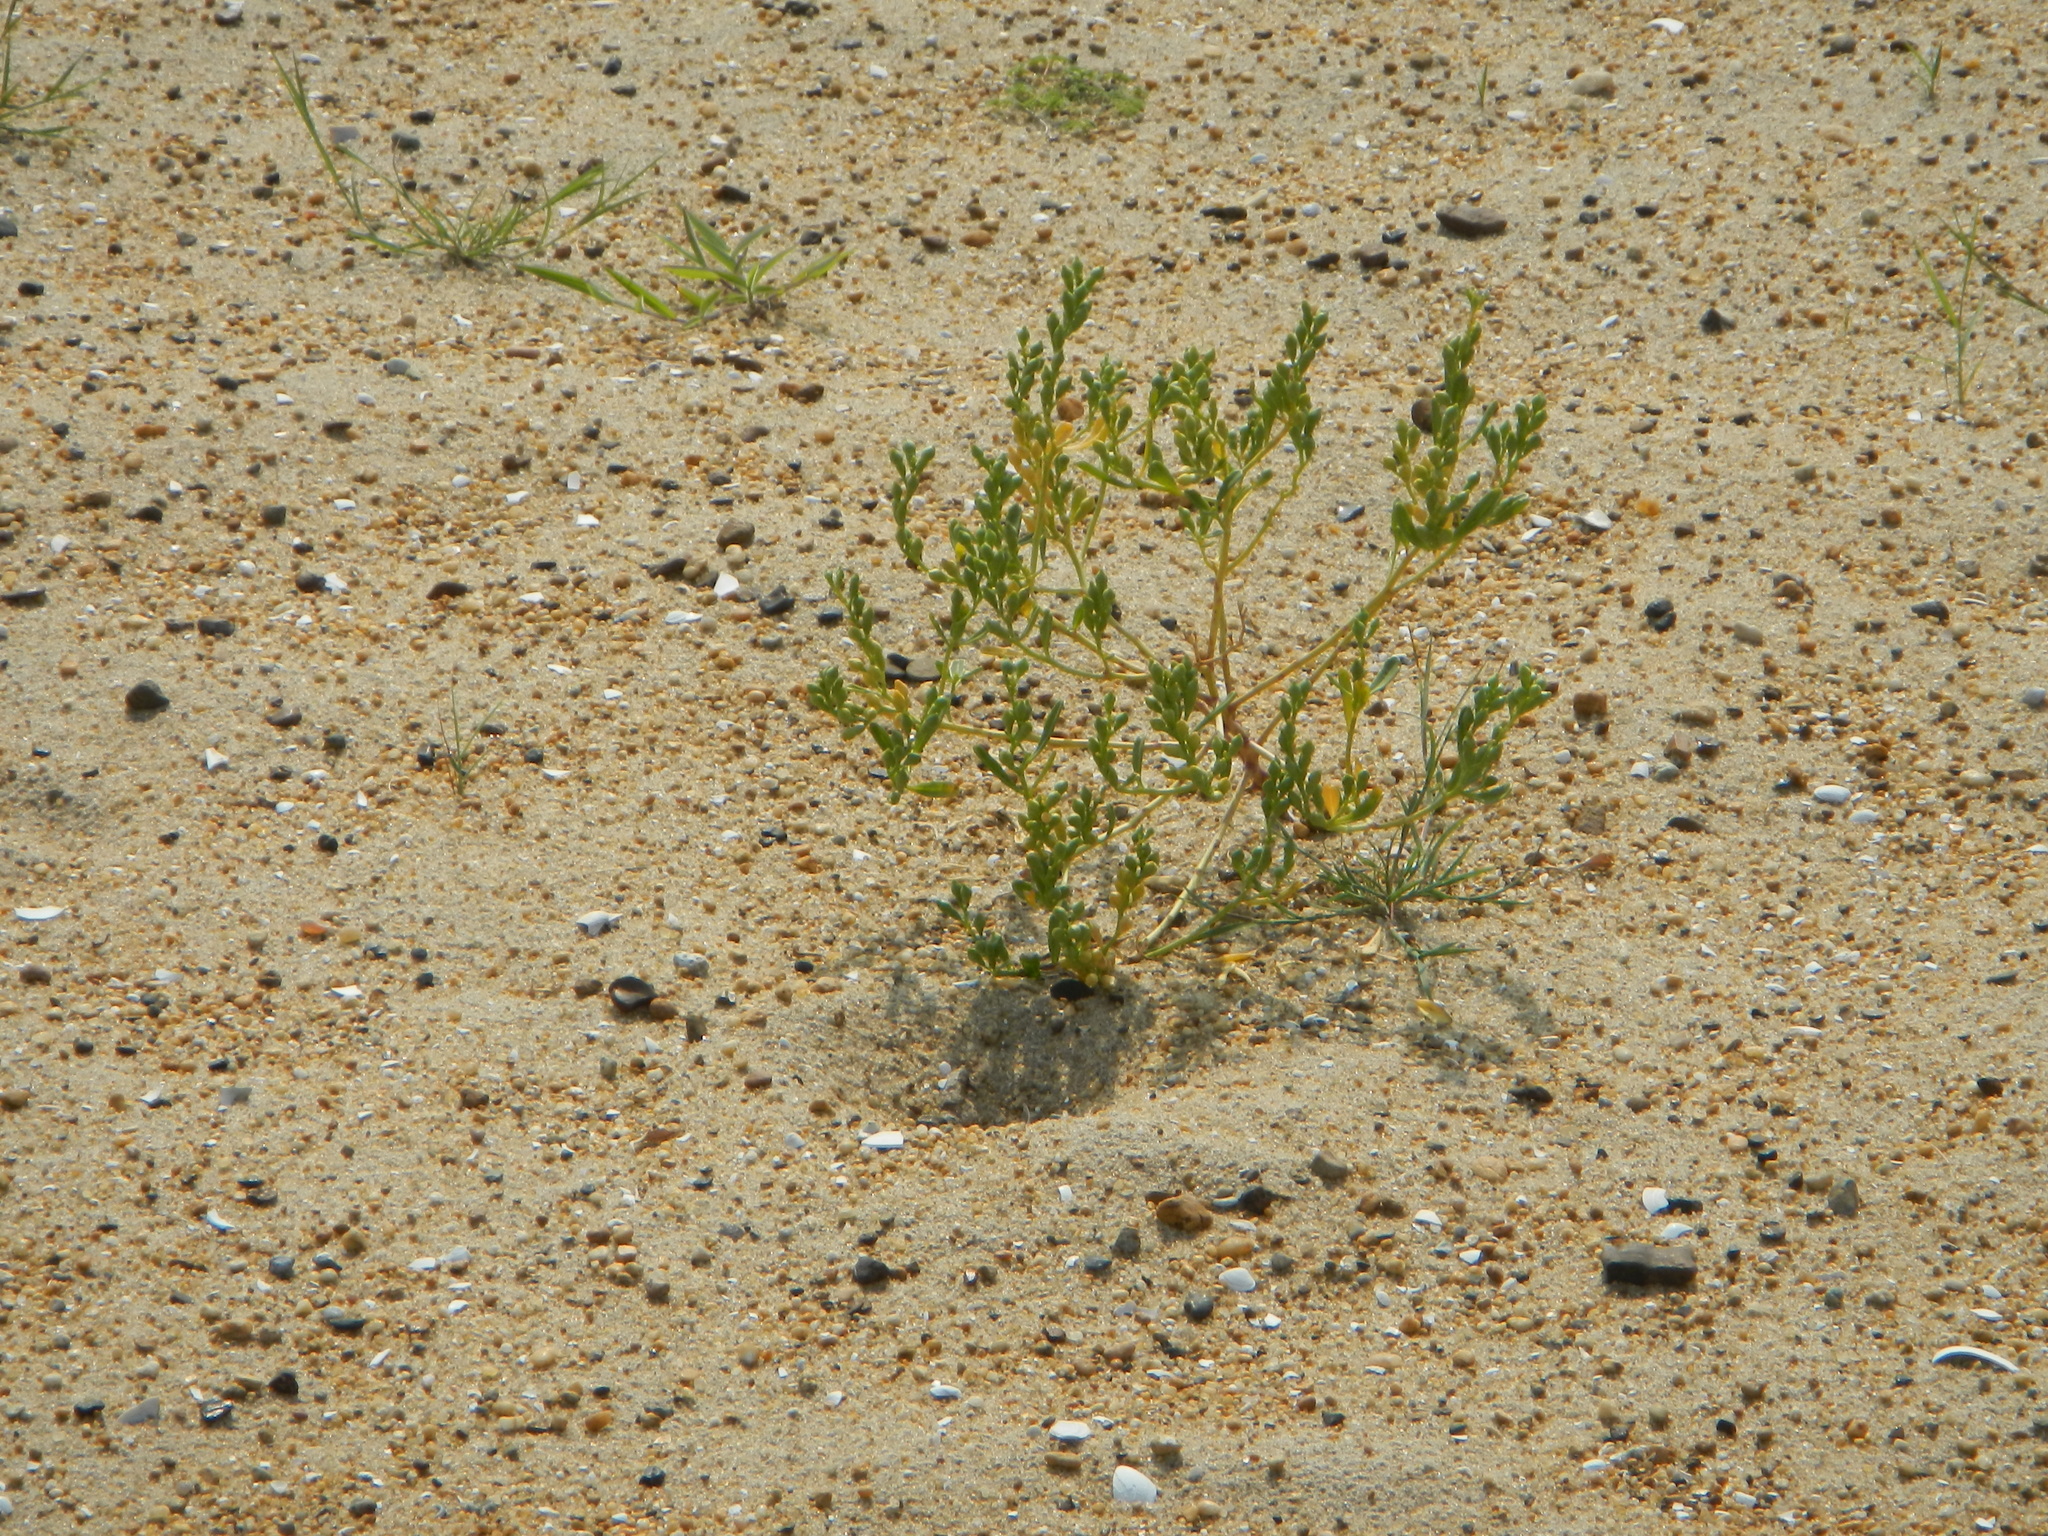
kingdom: Plantae
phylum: Tracheophyta
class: Magnoliopsida
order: Brassicales
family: Brassicaceae
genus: Cakile
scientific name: Cakile edentula
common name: American sea rocket
